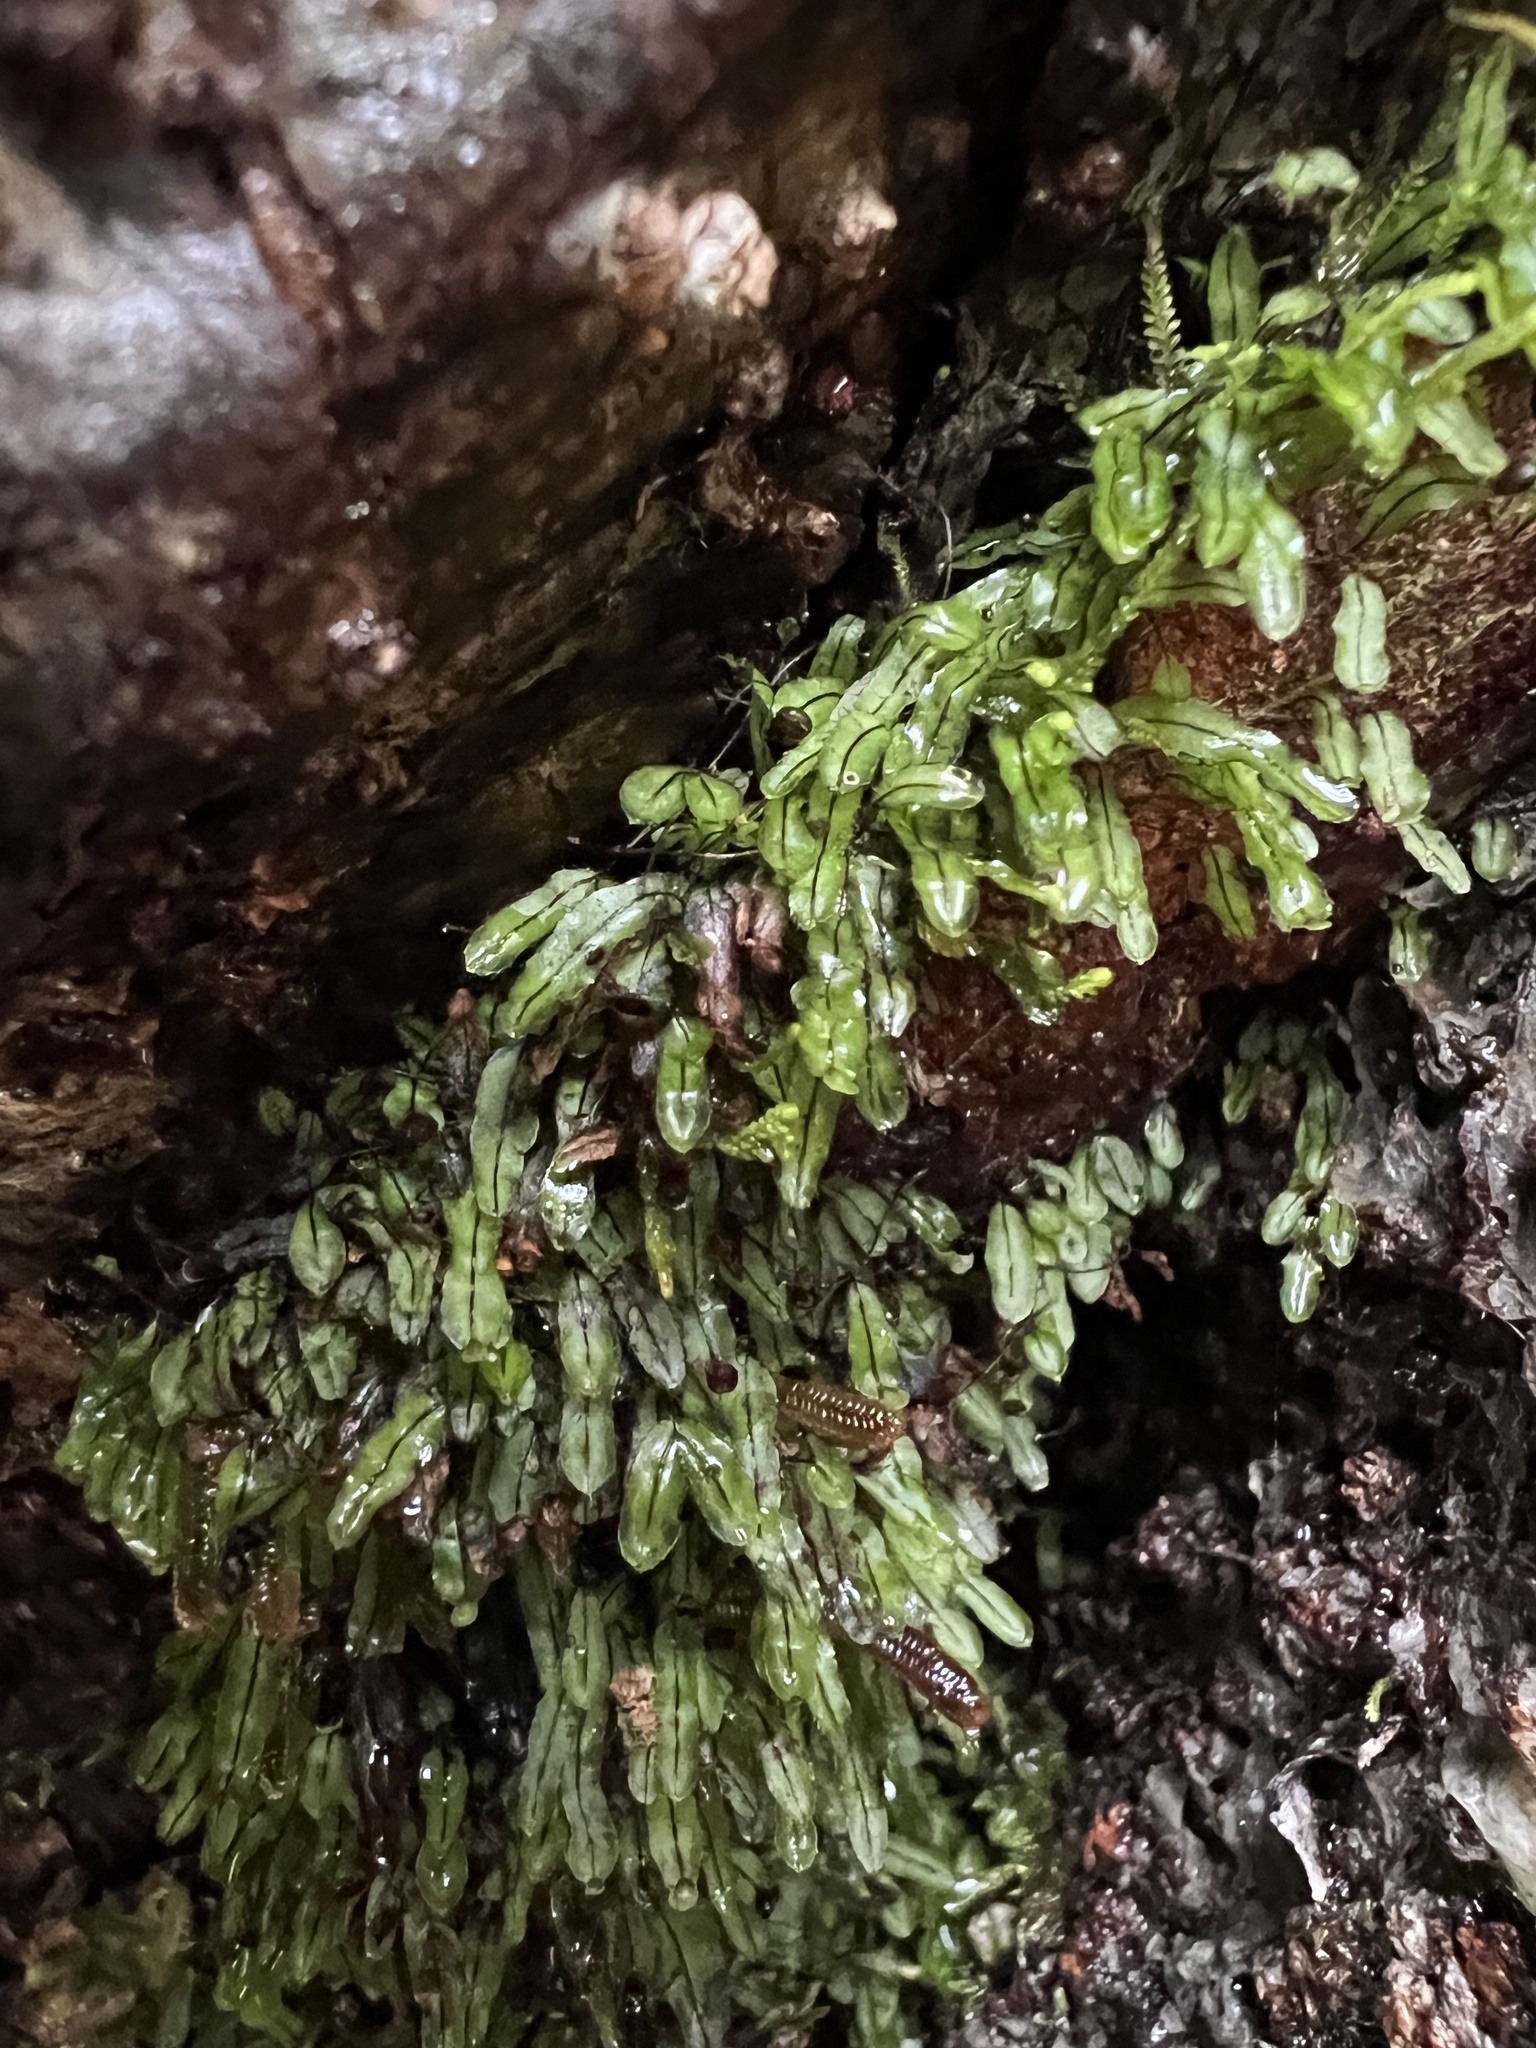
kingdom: Plantae
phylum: Tracheophyta
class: Polypodiopsida
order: Hymenophyllales
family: Hymenophyllaceae
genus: Hymenophyllum
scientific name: Hymenophyllum armstrongii
